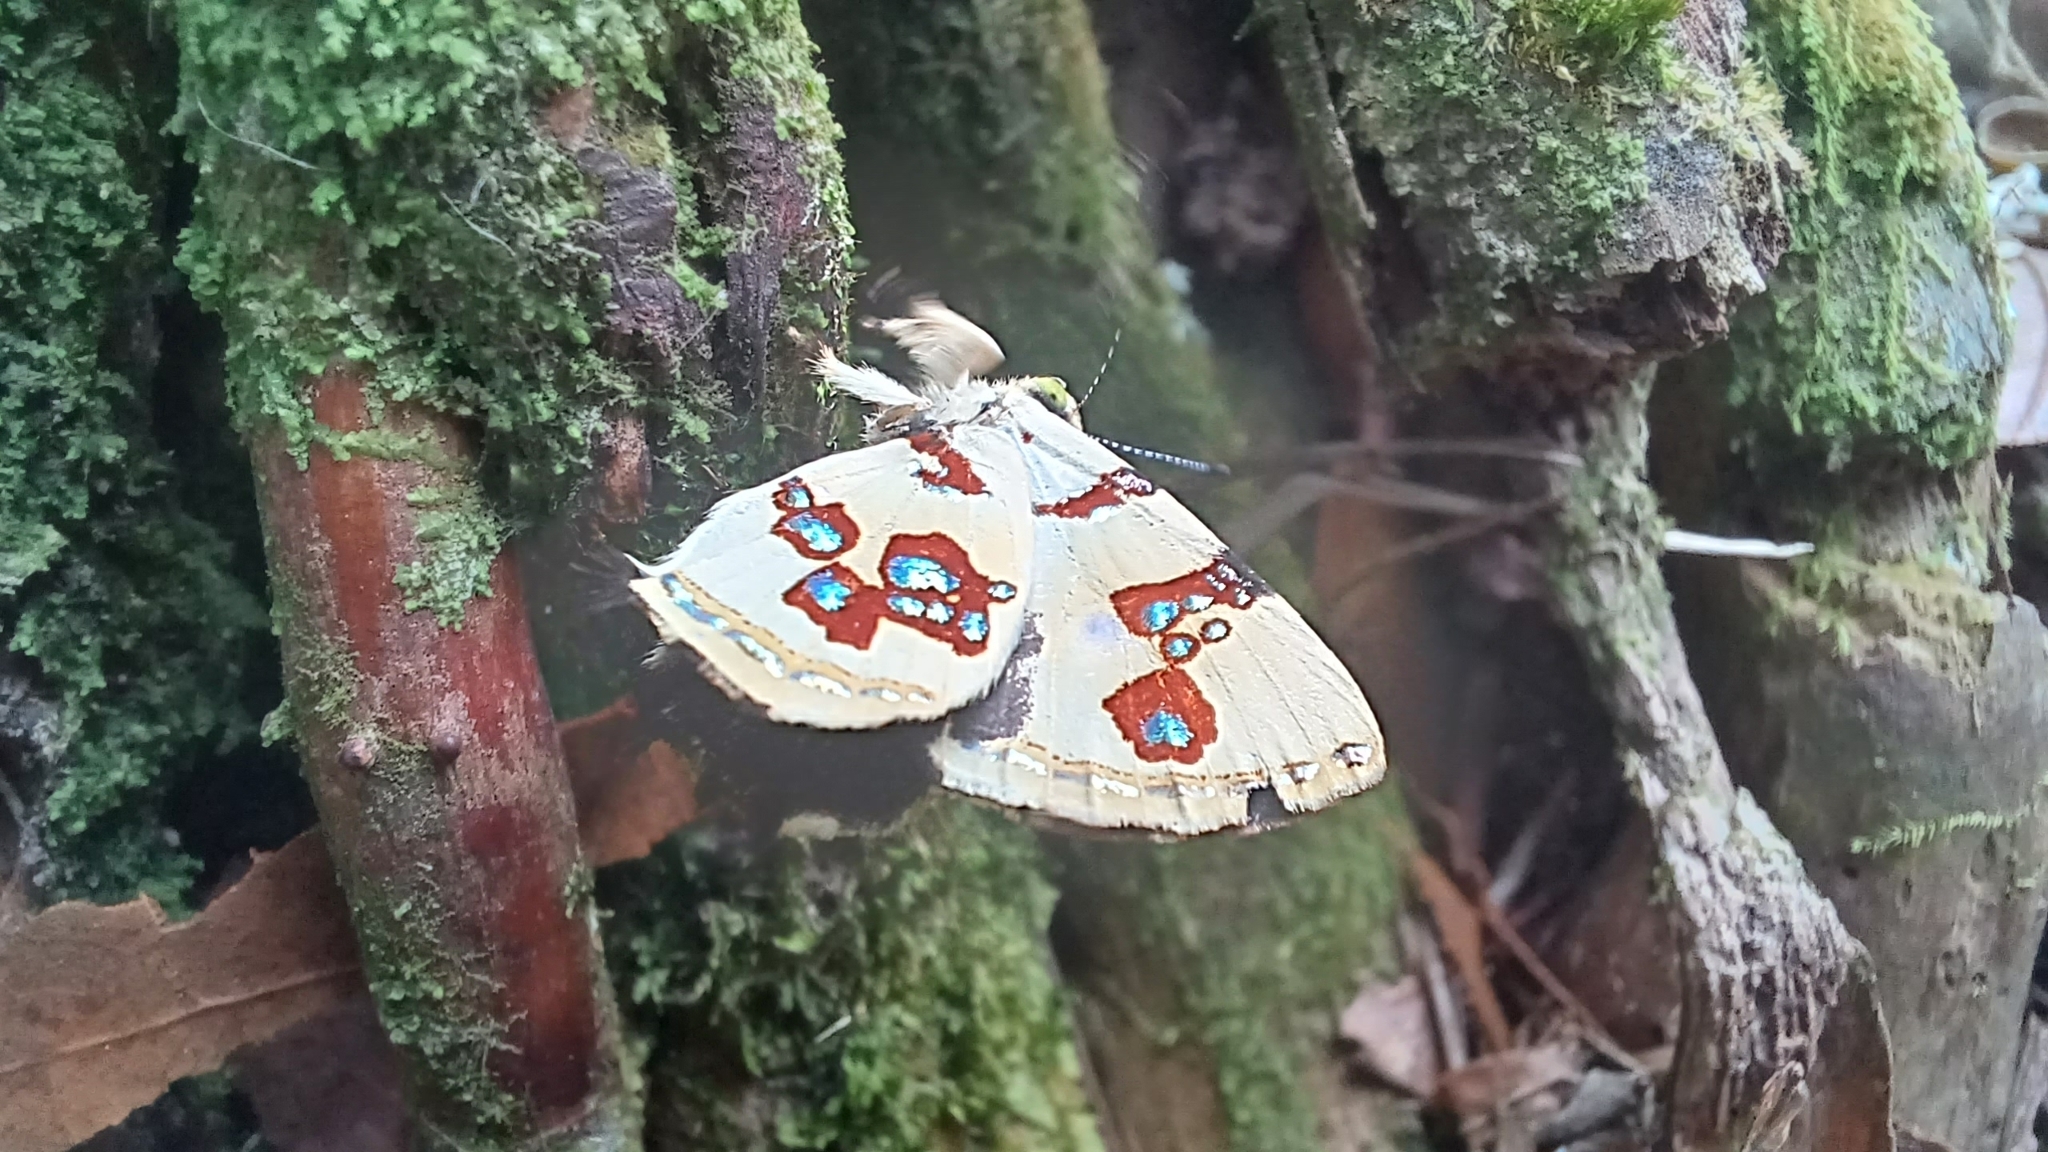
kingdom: Animalia
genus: Anteros
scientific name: Anteros formosus
